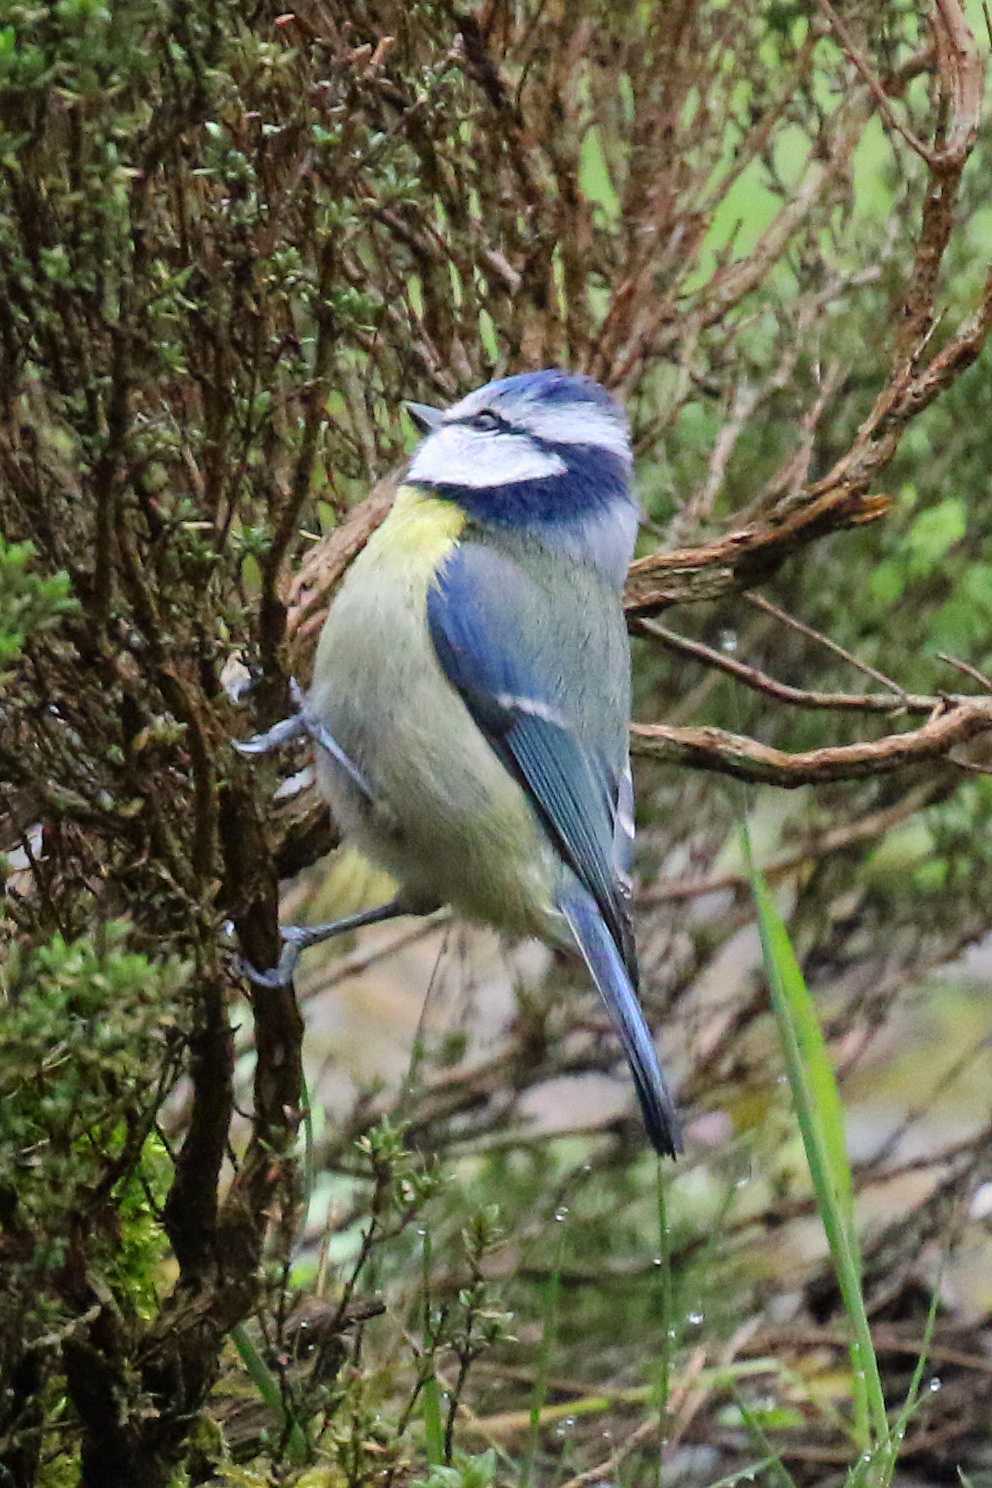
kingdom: Animalia
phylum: Chordata
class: Aves
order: Passeriformes
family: Paridae
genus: Cyanistes
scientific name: Cyanistes caeruleus
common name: Eurasian blue tit
